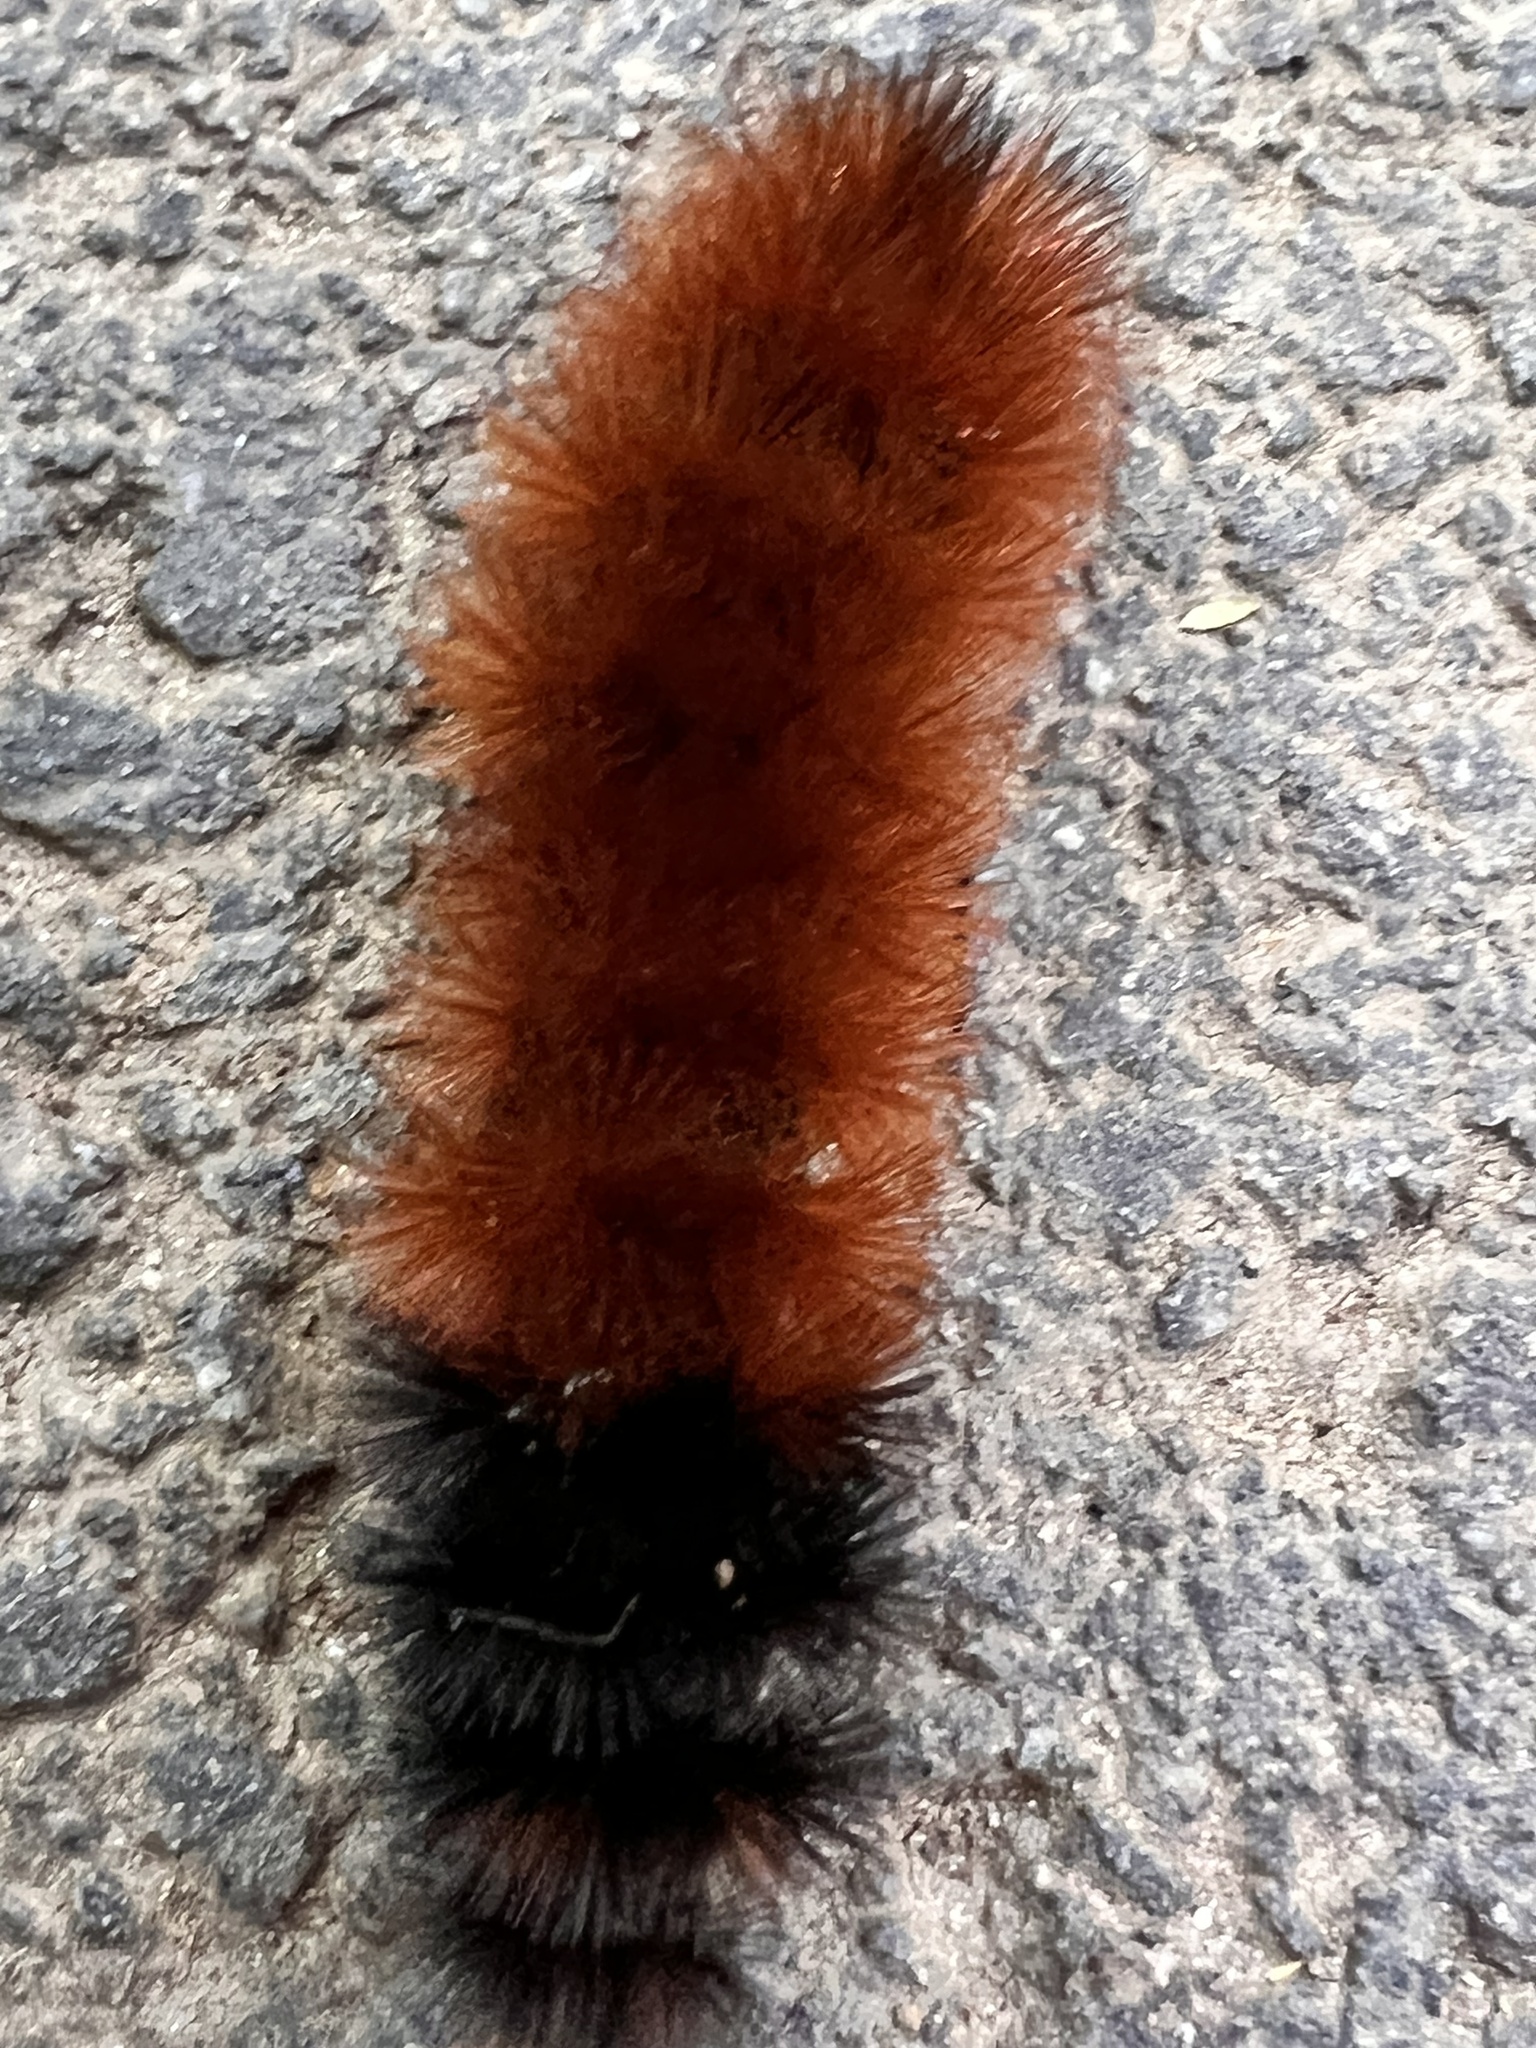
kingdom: Animalia
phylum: Arthropoda
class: Insecta
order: Lepidoptera
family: Erebidae
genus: Pyrrharctia
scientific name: Pyrrharctia isabella
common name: Isabella tiger moth
